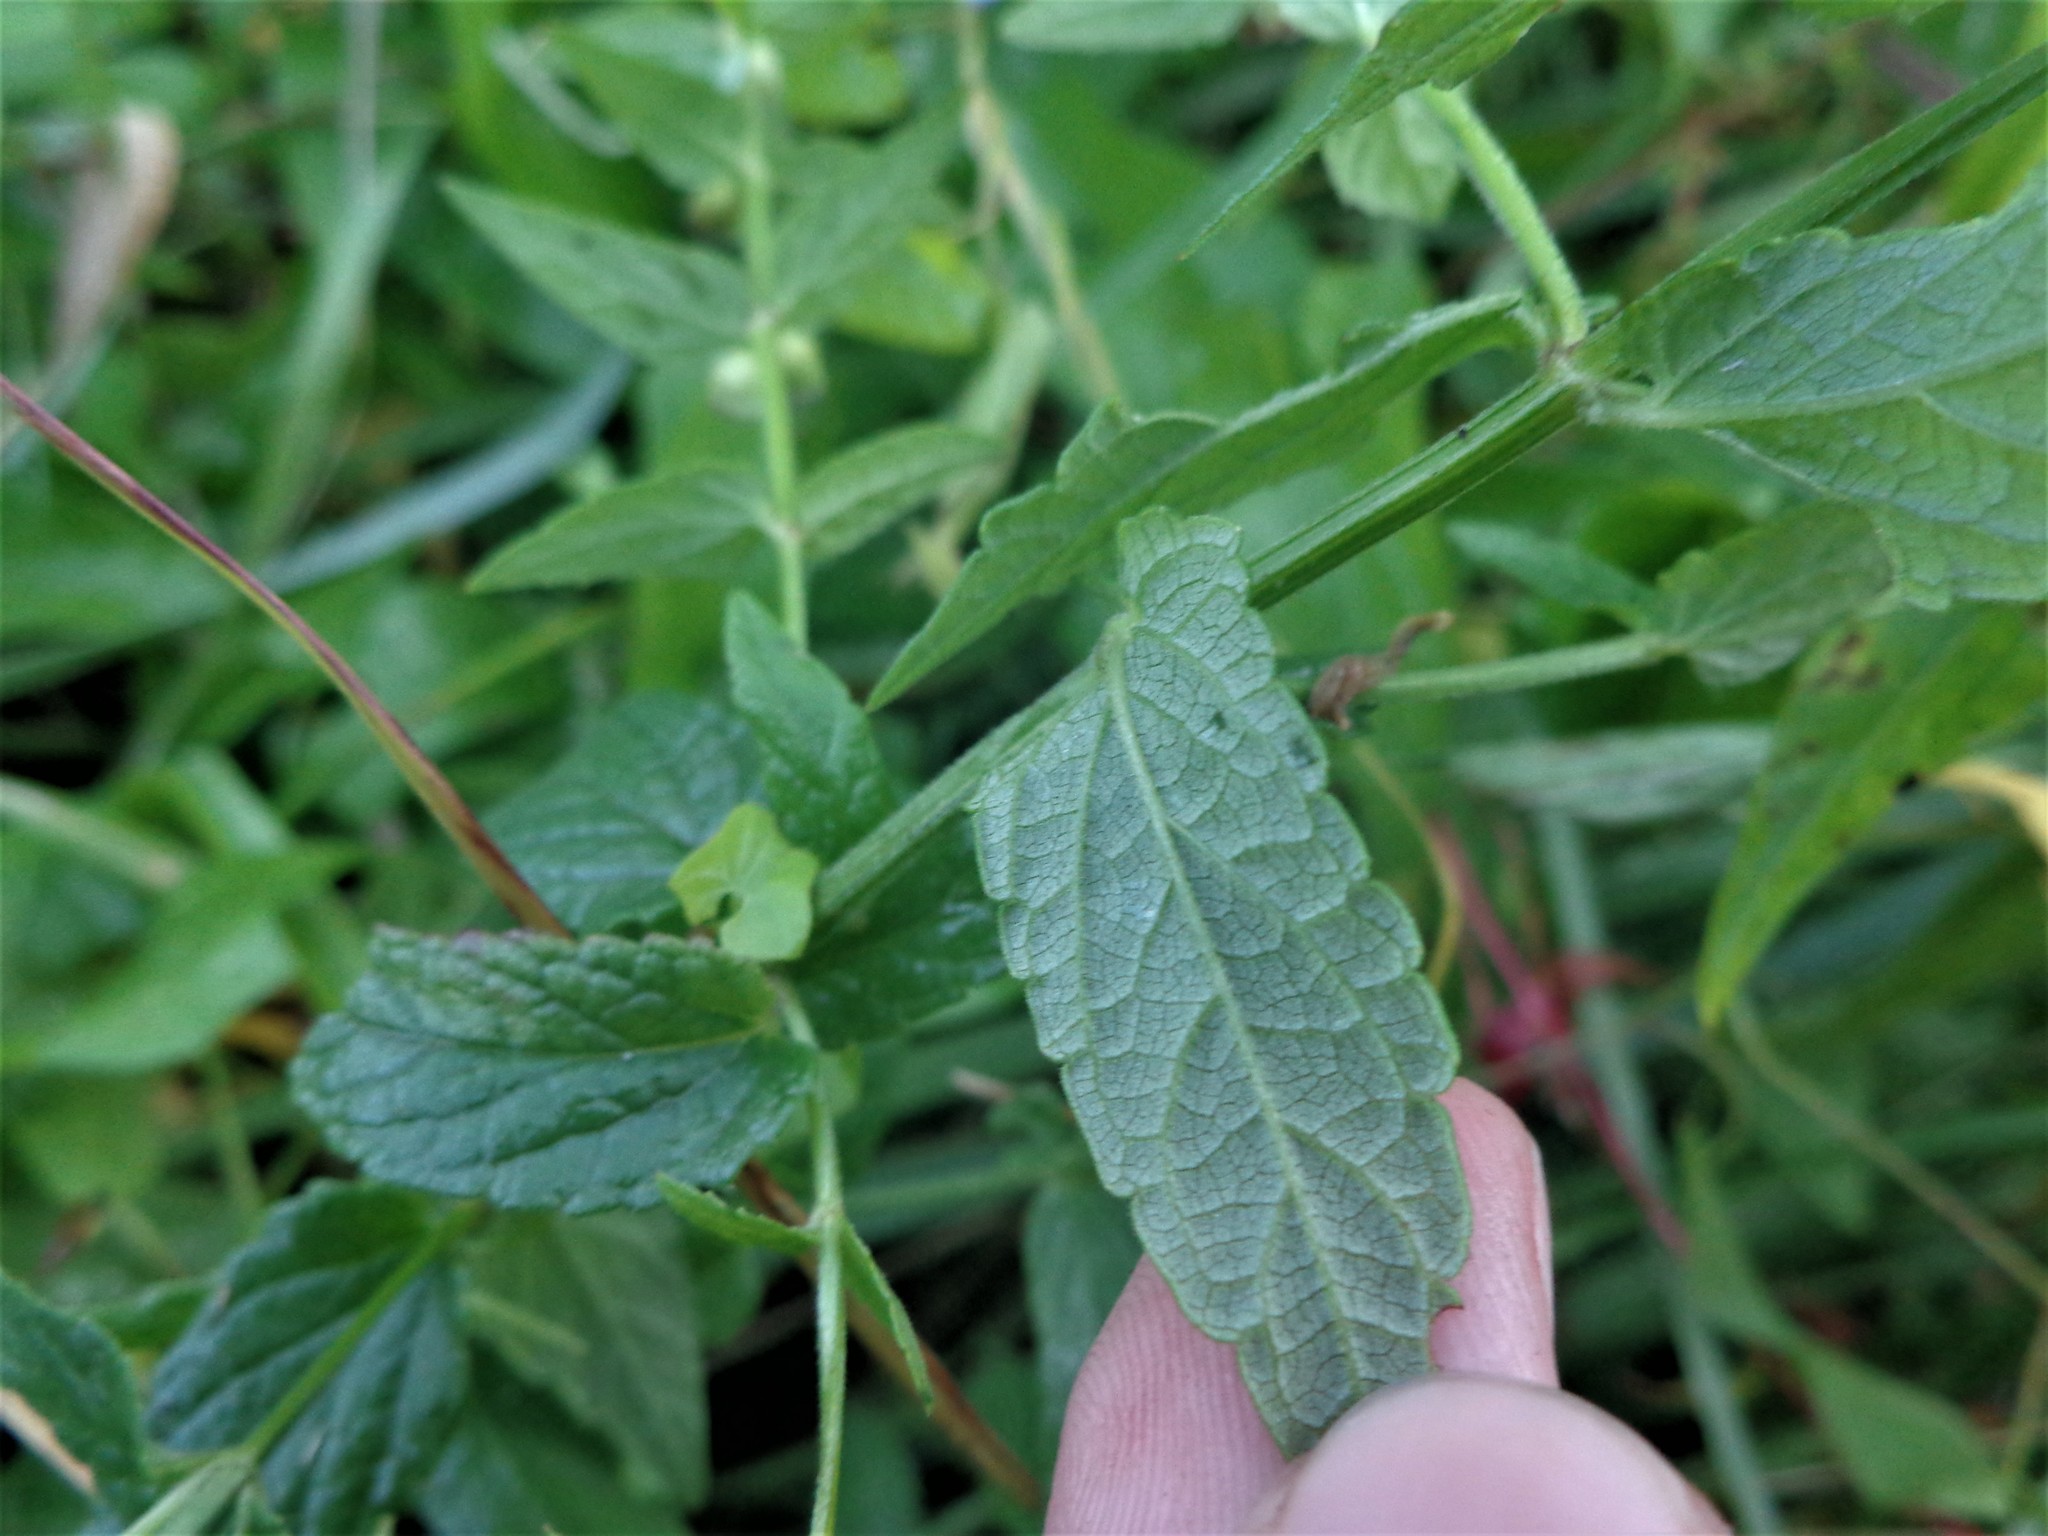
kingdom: Plantae
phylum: Tracheophyta
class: Magnoliopsida
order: Lamiales
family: Lamiaceae
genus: Scutellaria
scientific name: Scutellaria galericulata
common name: Skullcap
